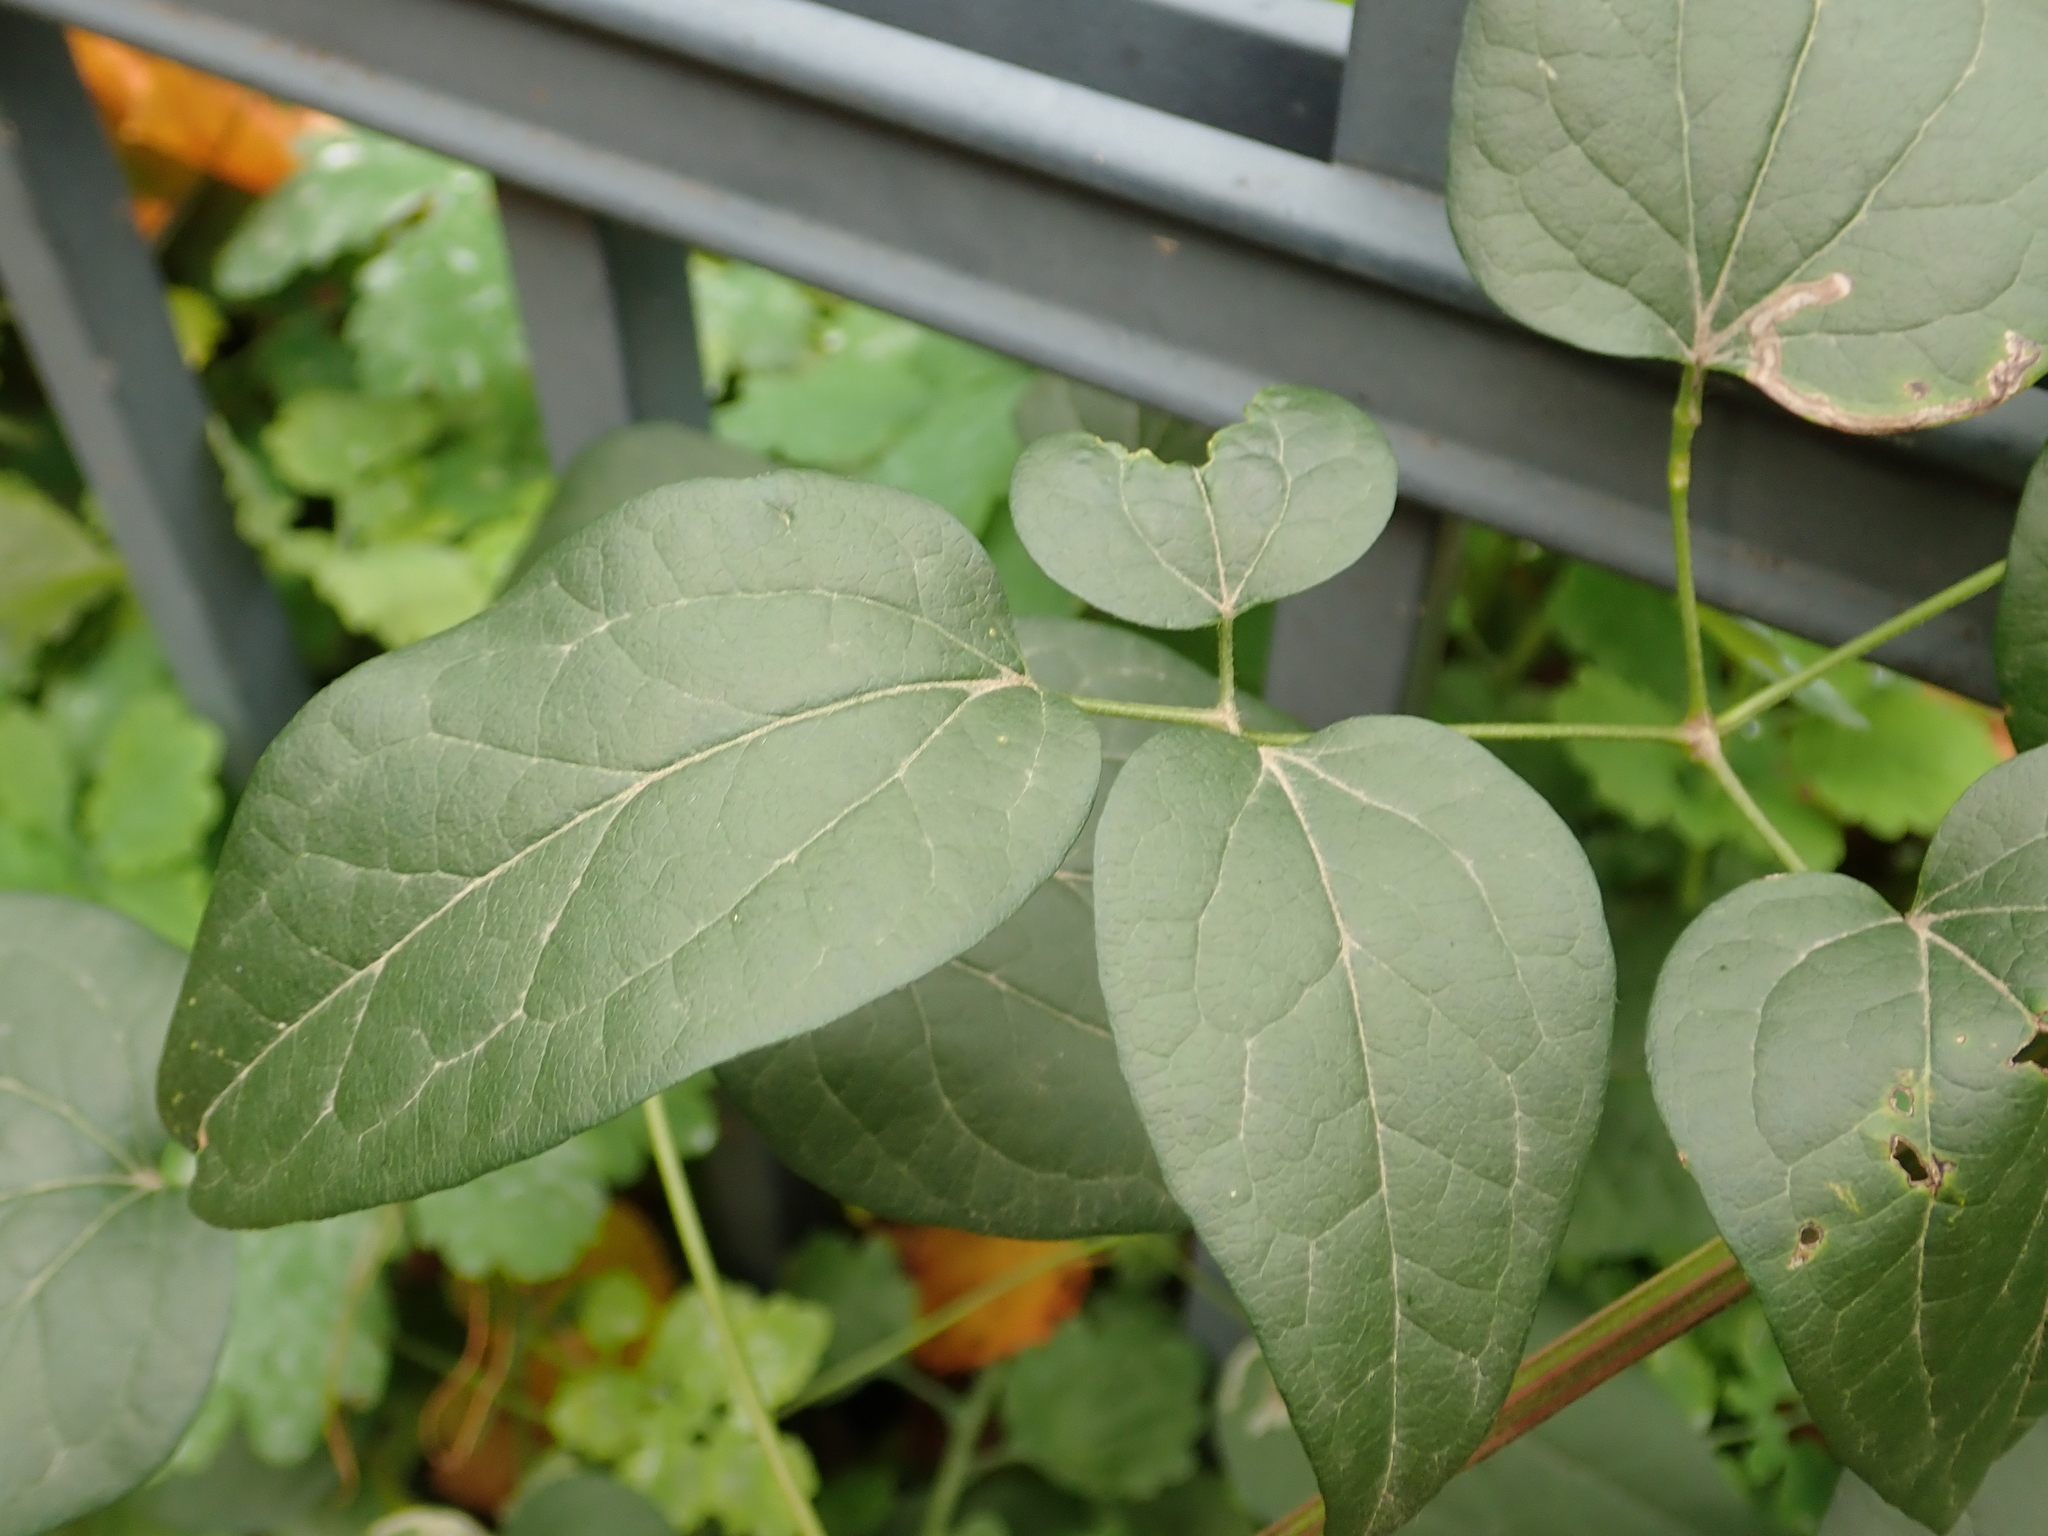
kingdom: Plantae
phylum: Tracheophyta
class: Magnoliopsida
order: Ranunculales
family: Ranunculaceae
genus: Clematis
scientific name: Clematis vitalba
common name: Evergreen clematis
